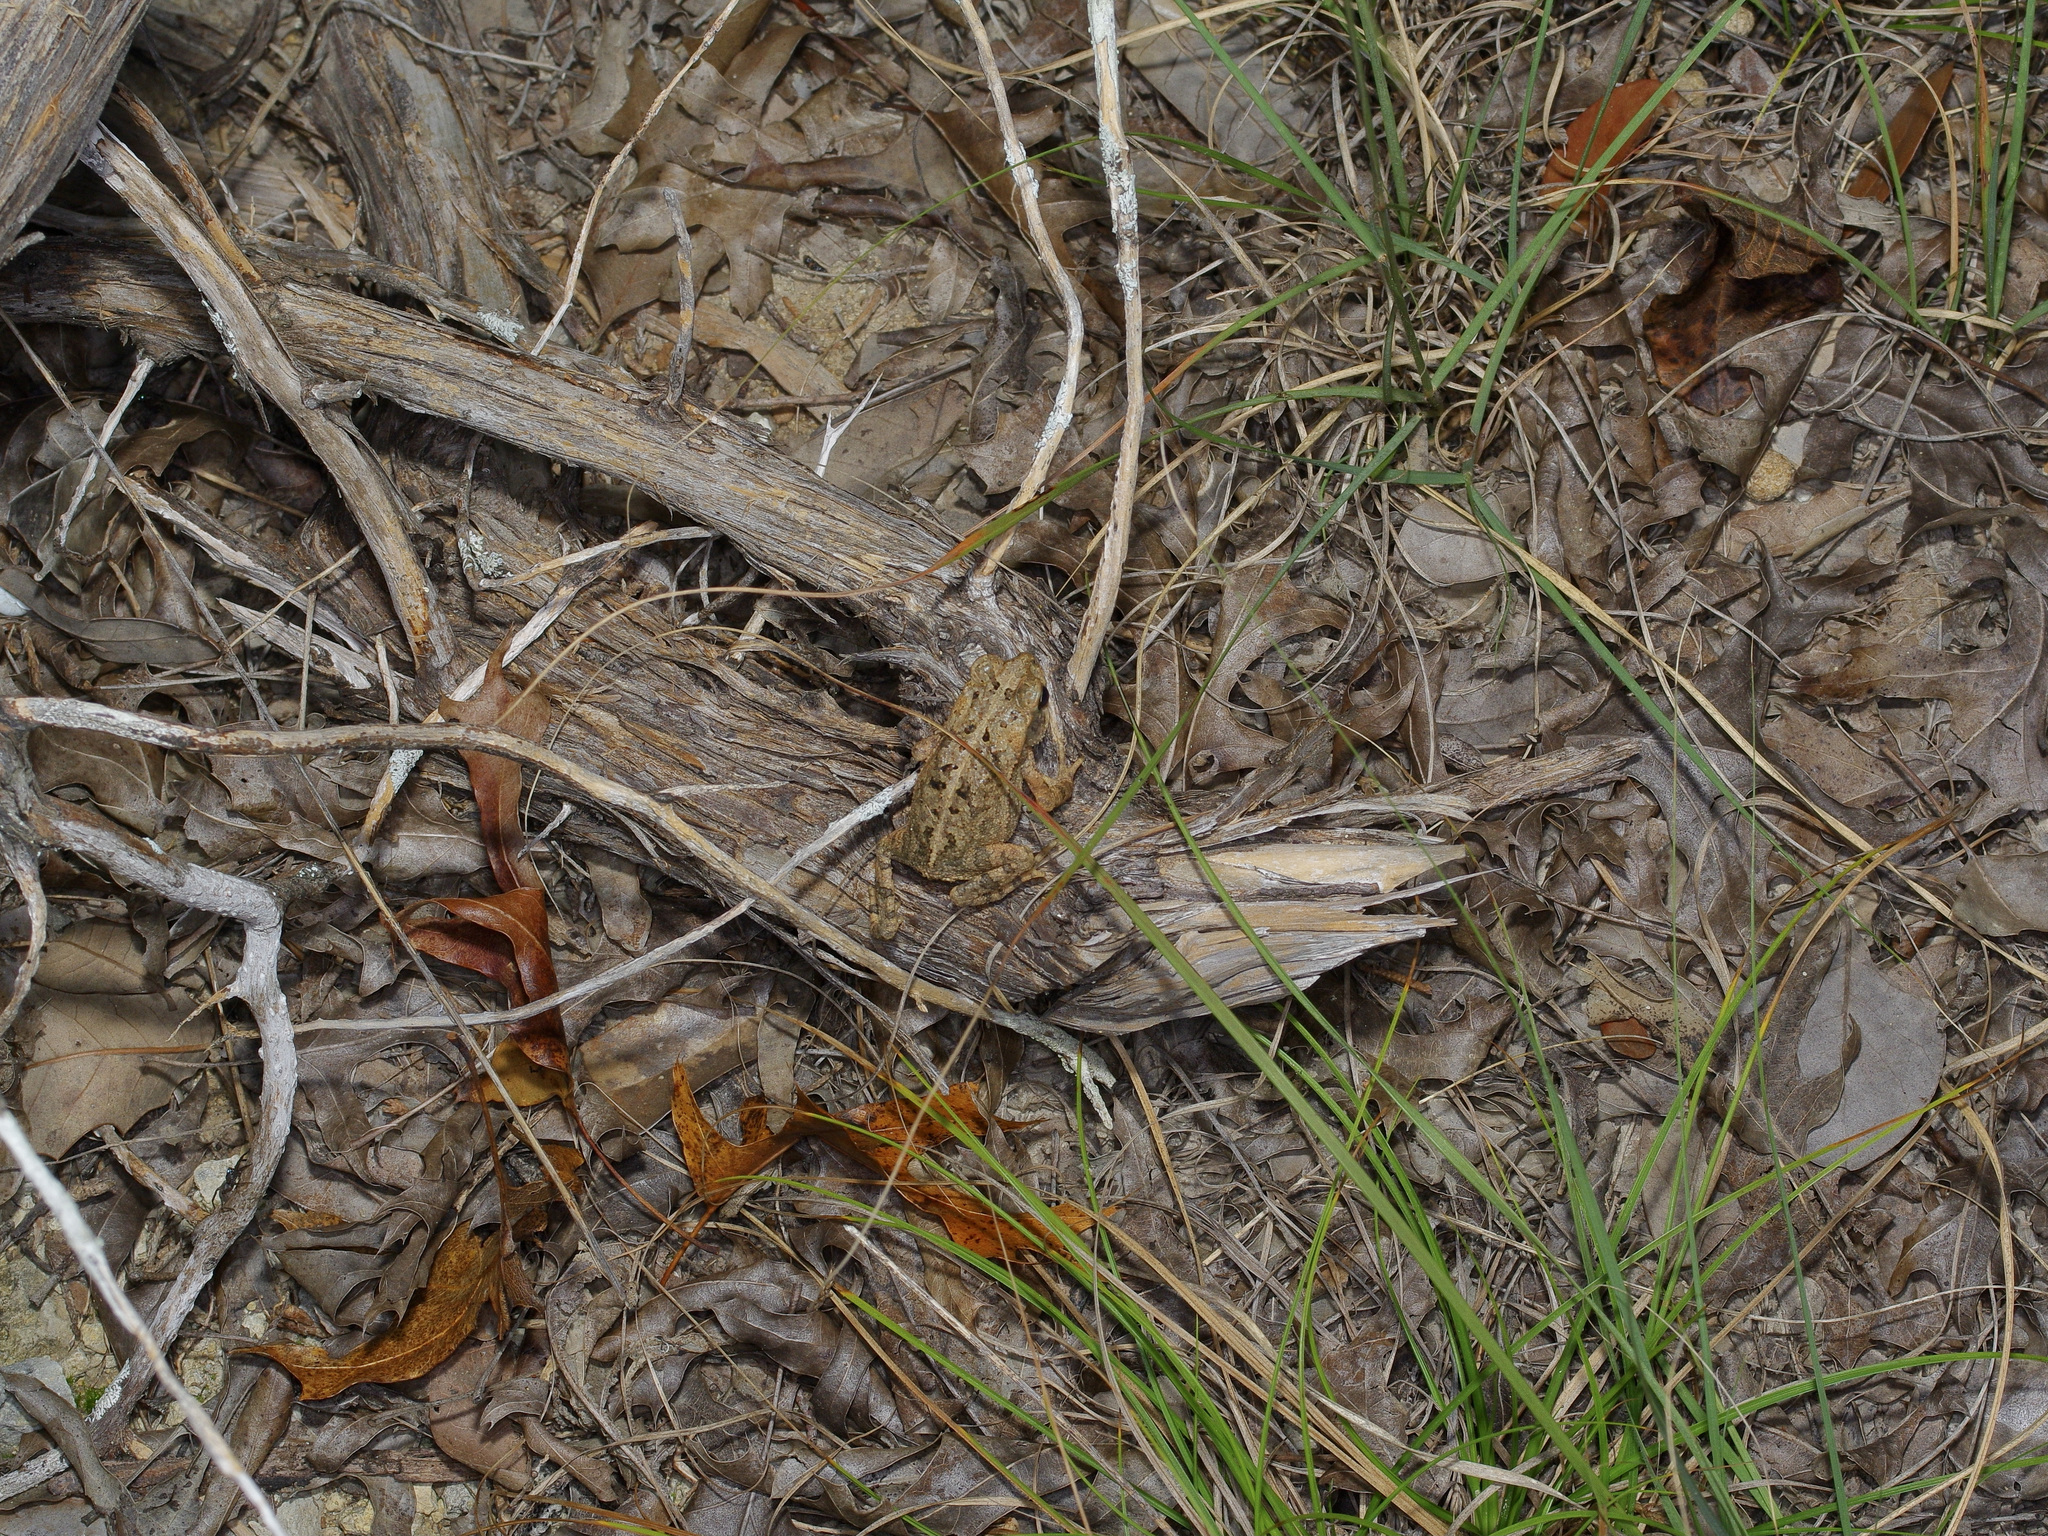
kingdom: Animalia
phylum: Chordata
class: Amphibia
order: Anura
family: Bufonidae
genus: Incilius
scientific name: Incilius nebulifer
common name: Gulf coast toad
